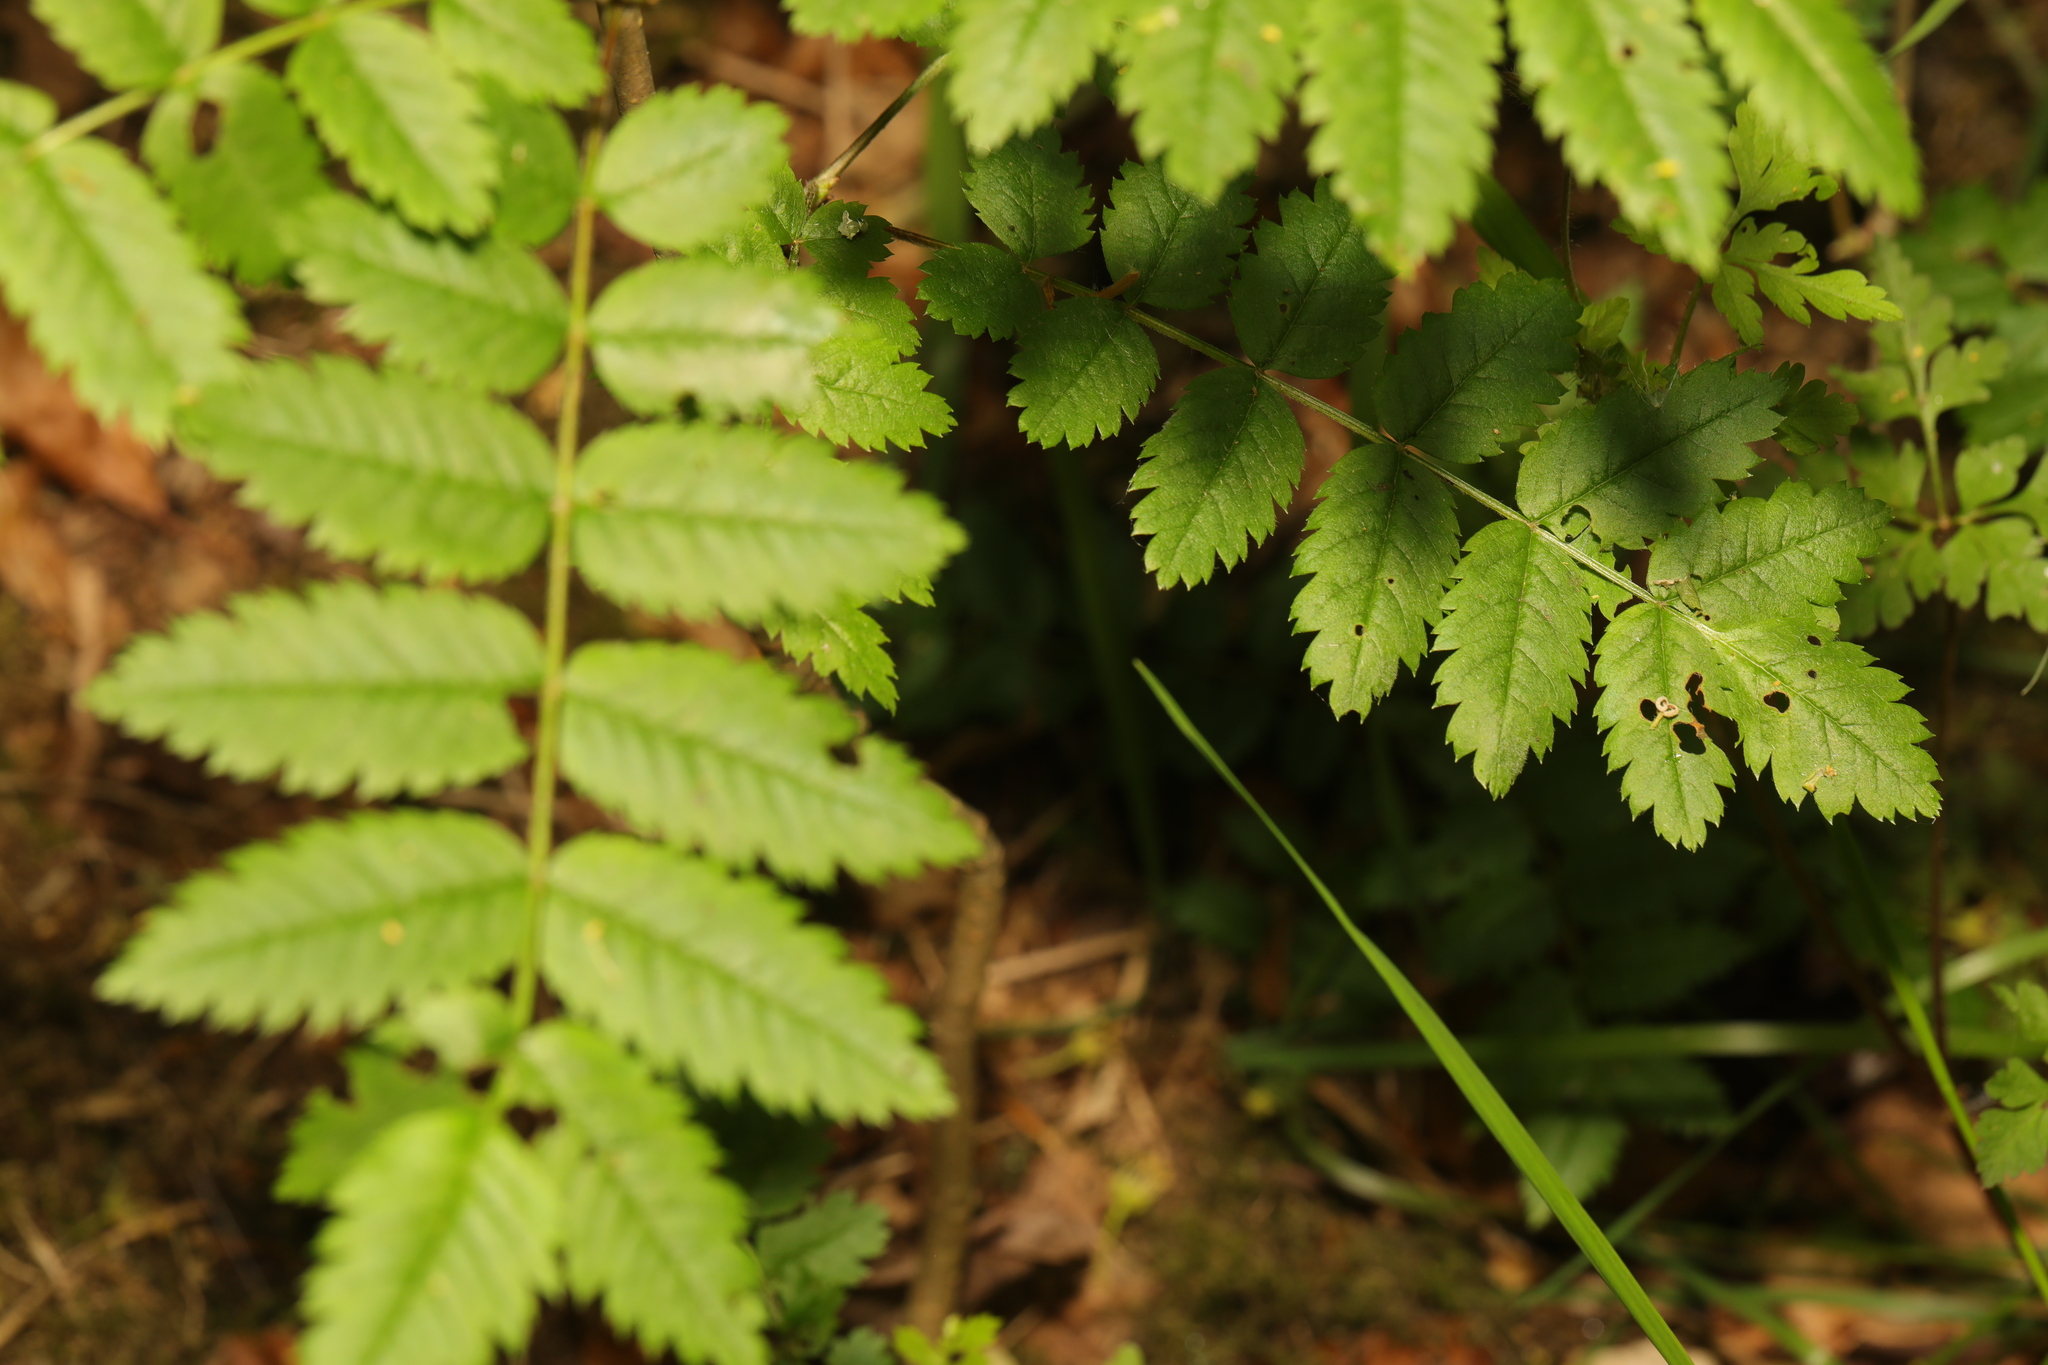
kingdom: Plantae
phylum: Tracheophyta
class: Magnoliopsida
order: Rosales
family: Rosaceae
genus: Sorbus
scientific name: Sorbus aucuparia
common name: Rowan
